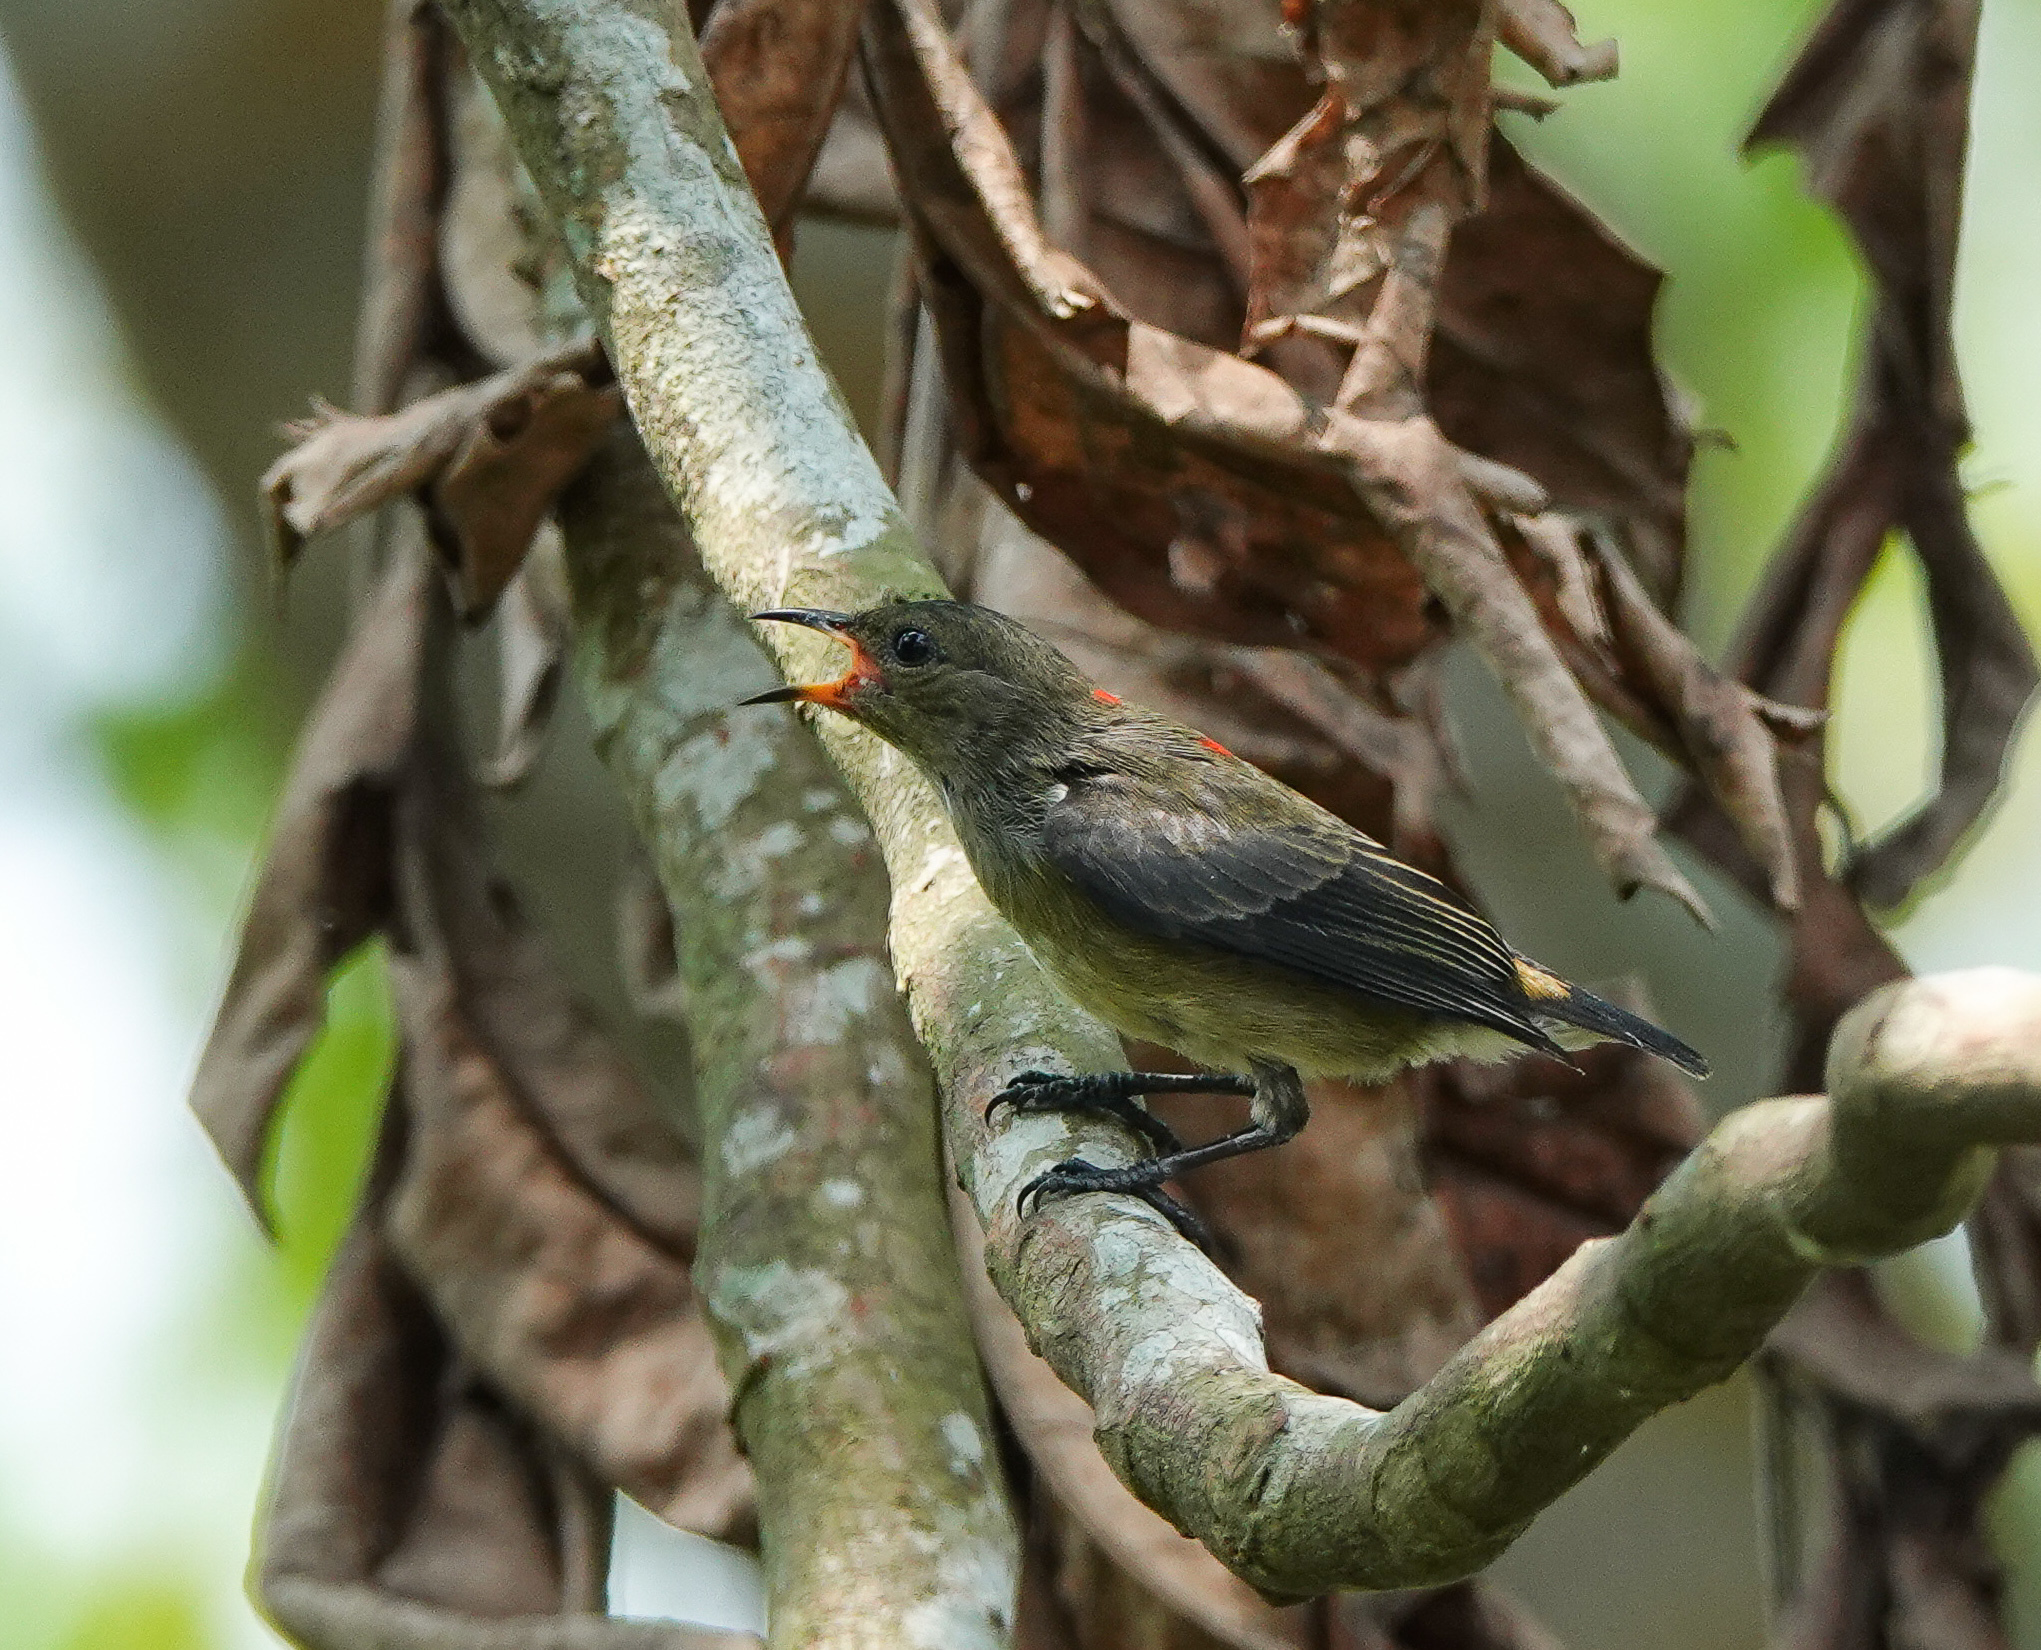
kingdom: Animalia
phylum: Chordata
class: Aves
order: Passeriformes
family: Dicaeidae
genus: Dicaeum
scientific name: Dicaeum cruentatum
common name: Scarlet-backed flowerpecker
